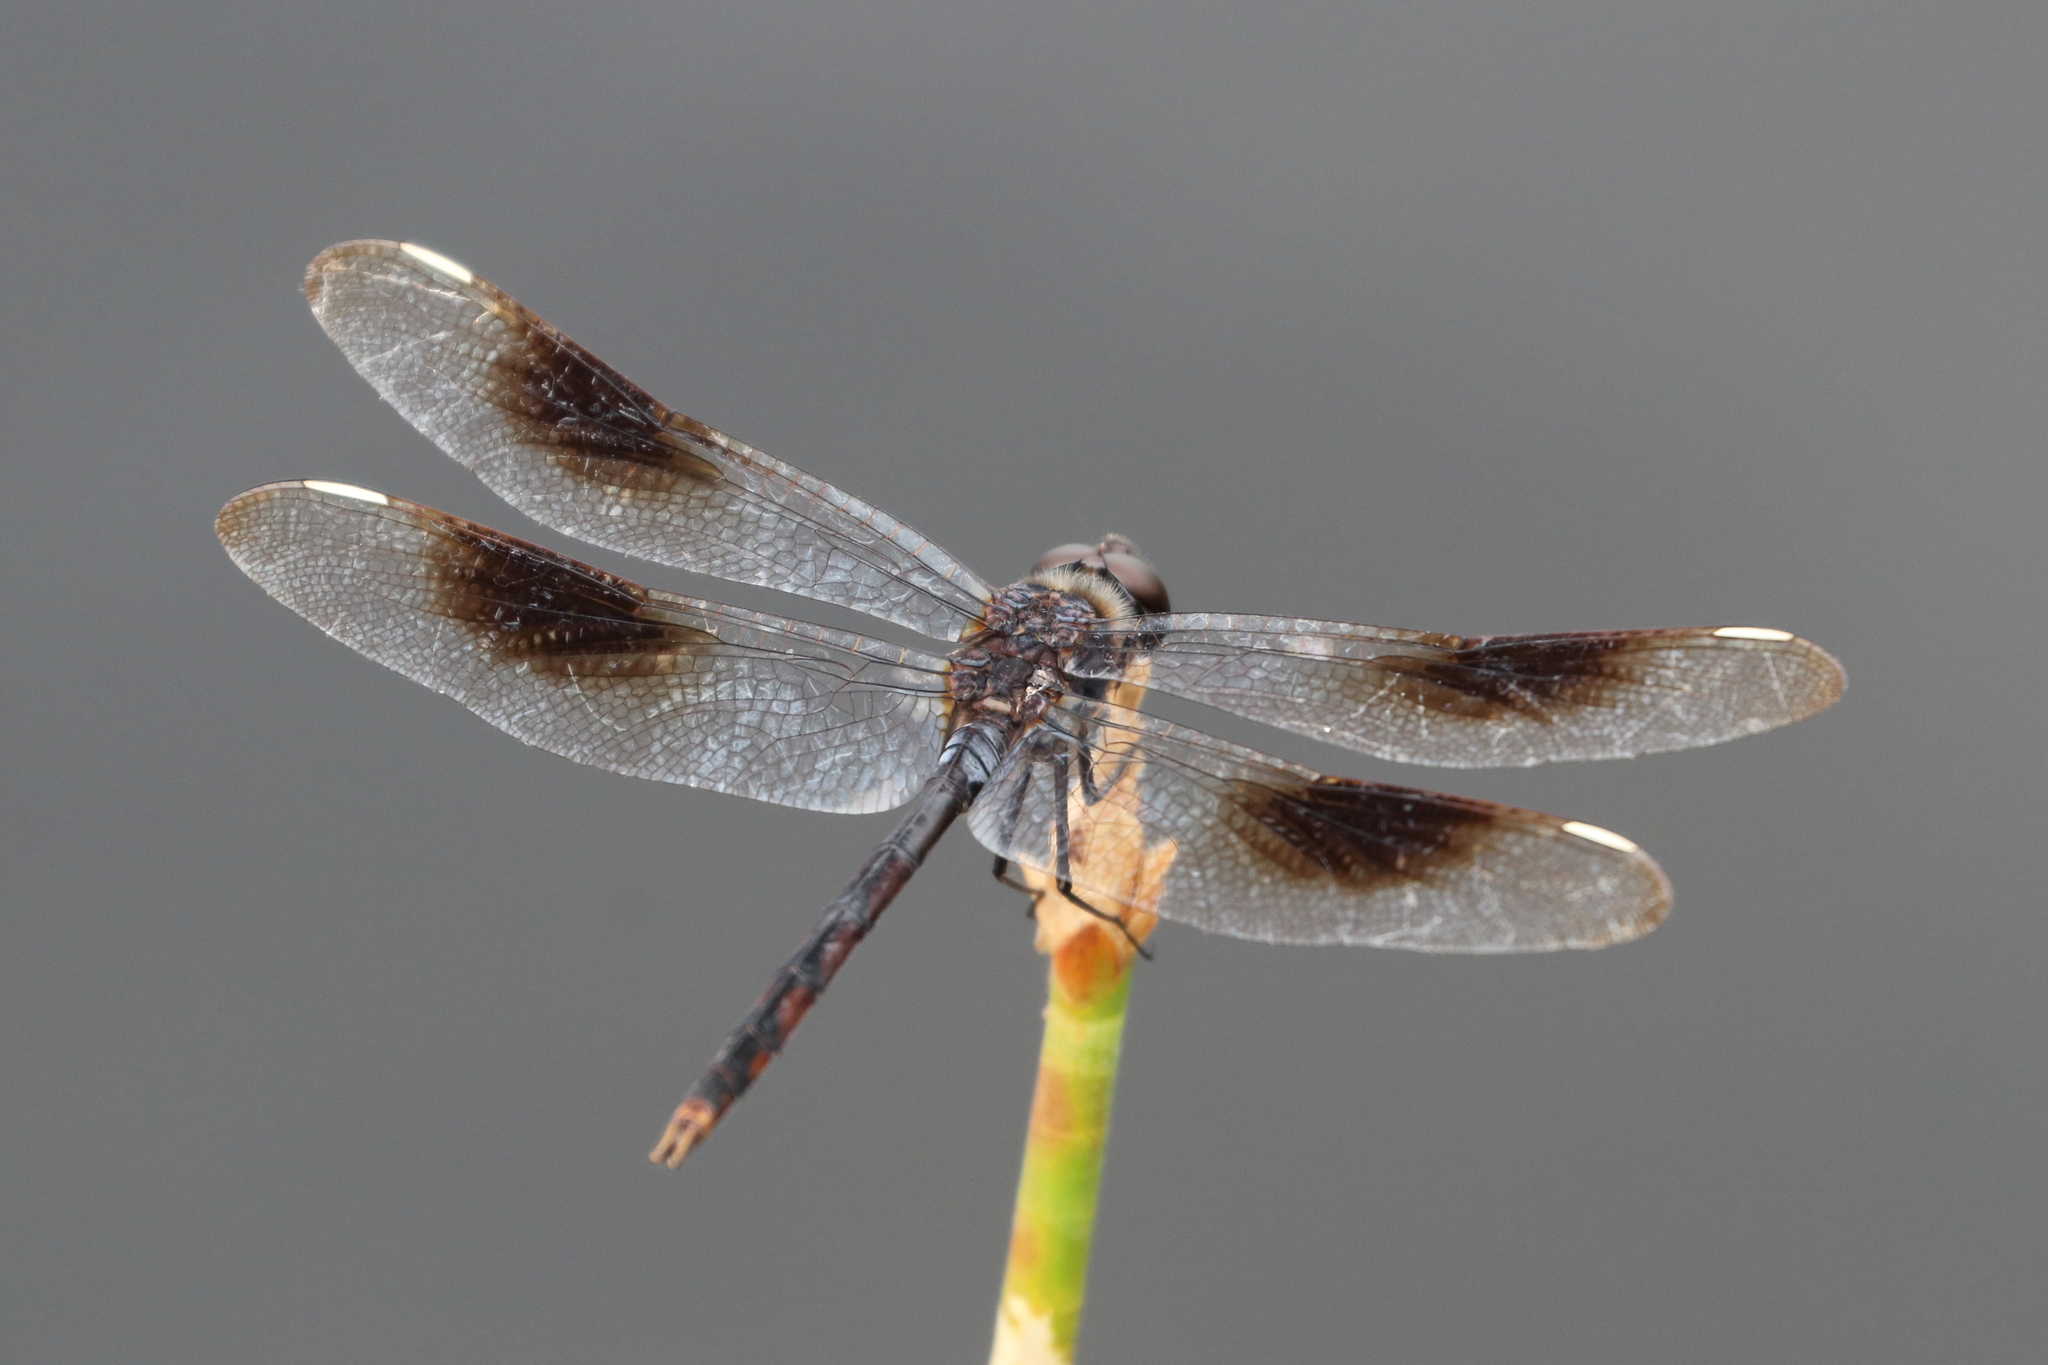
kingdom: Animalia
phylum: Arthropoda
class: Insecta
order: Odonata
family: Libellulidae
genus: Brachymesia
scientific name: Brachymesia gravida
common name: Four-spotted pennant
